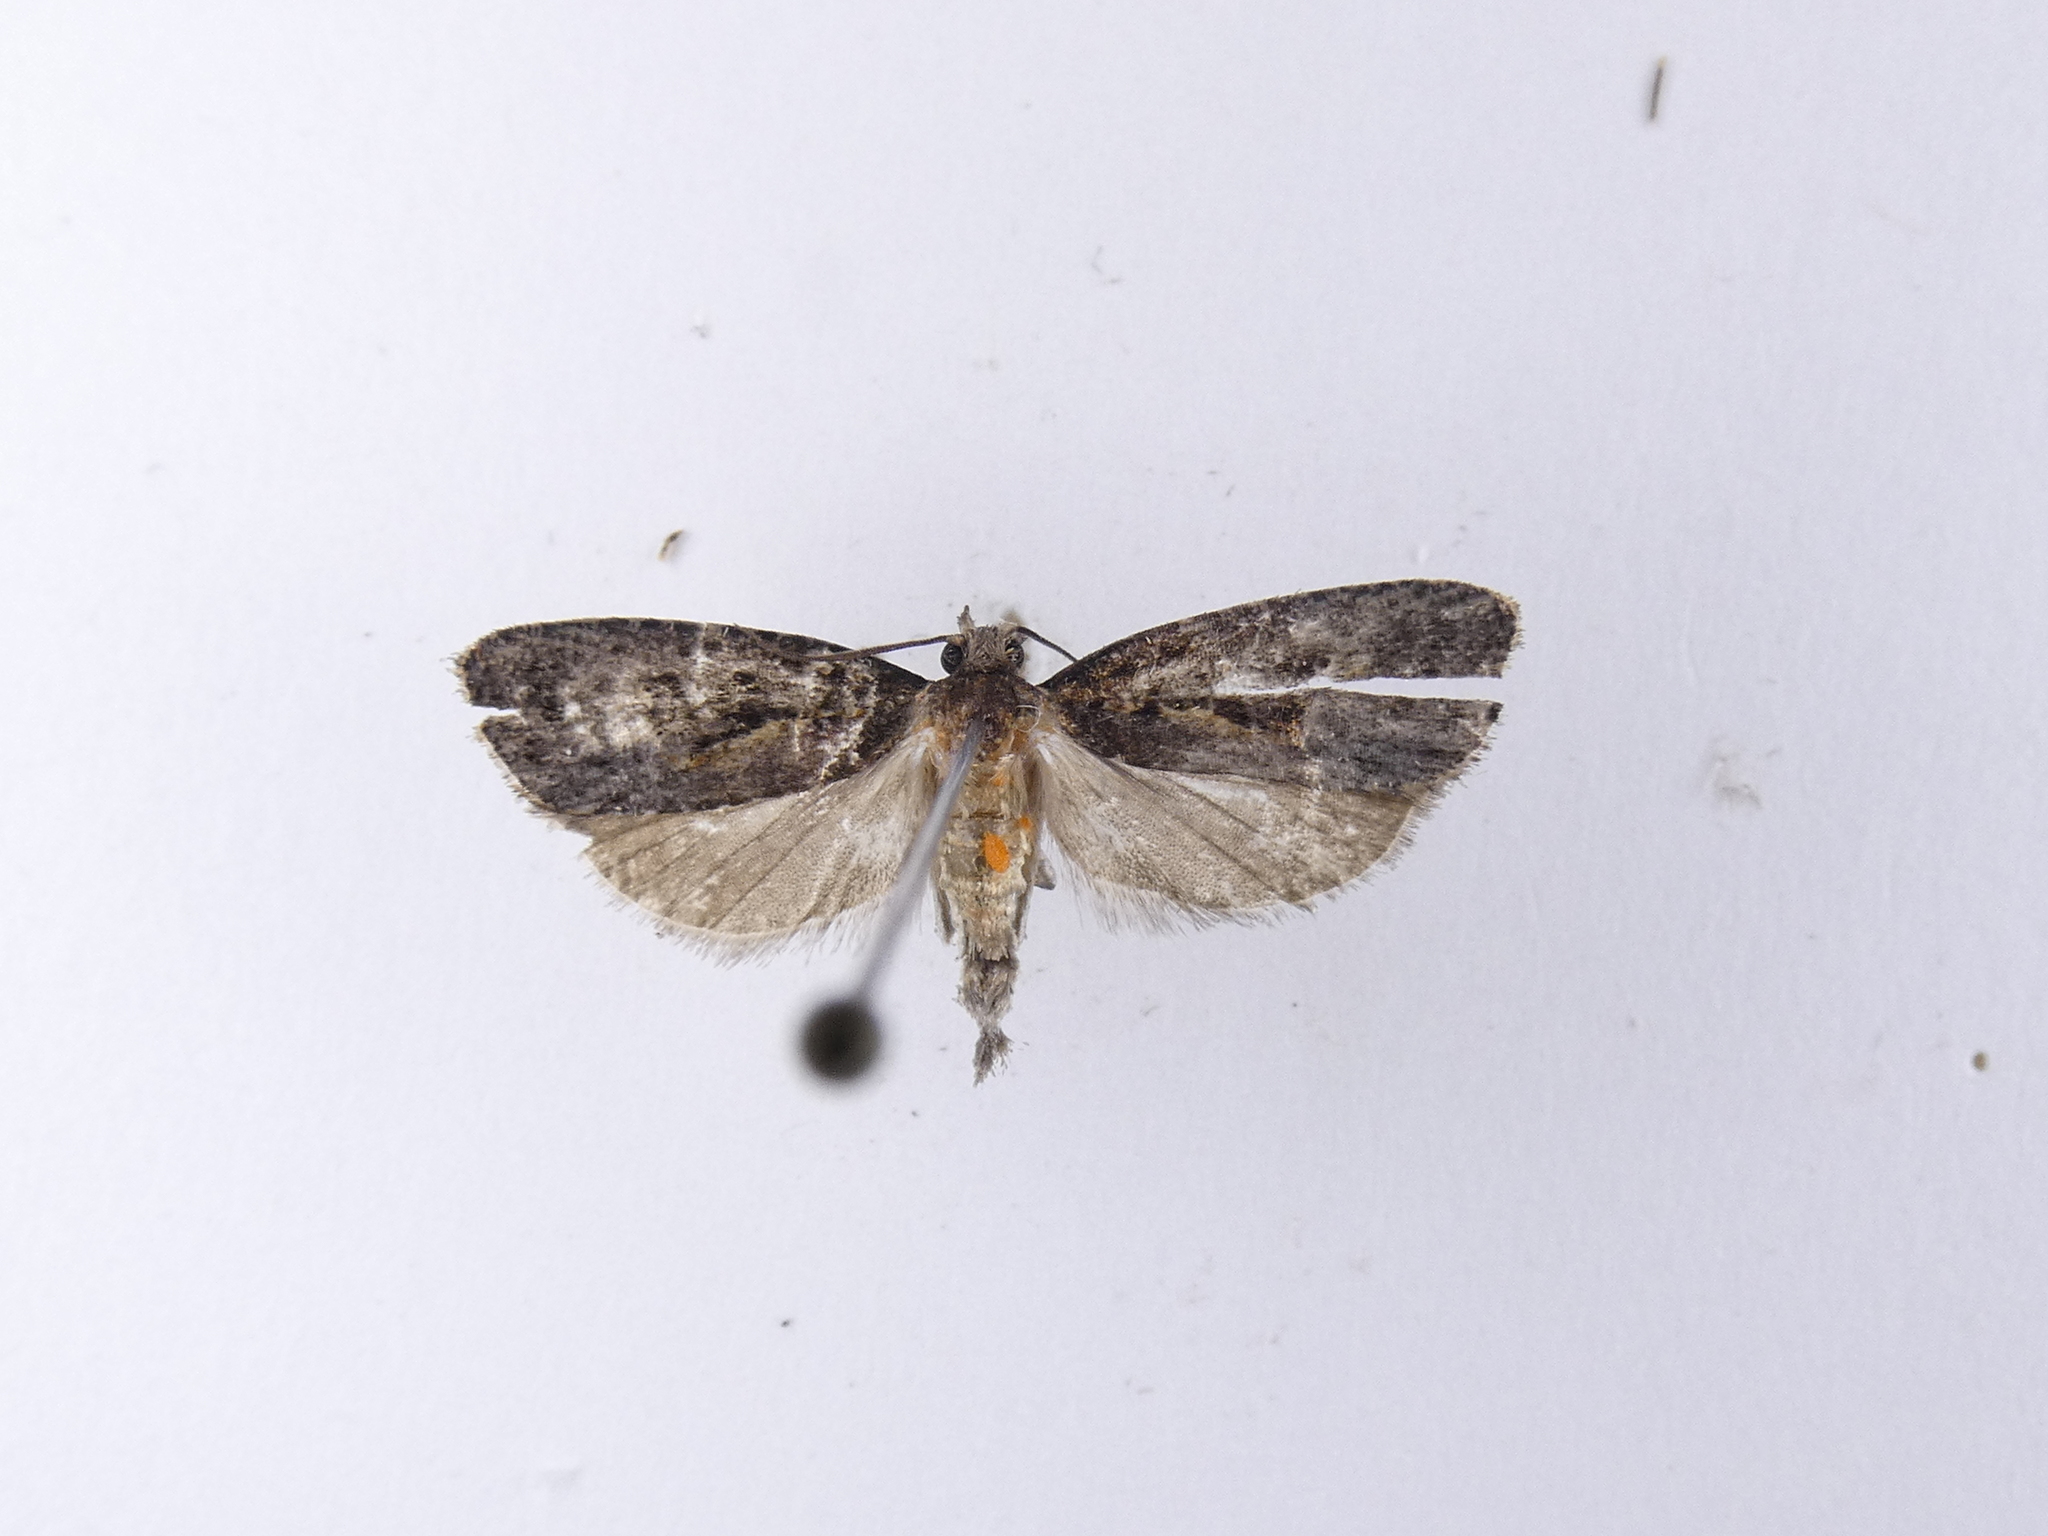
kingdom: Animalia
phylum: Arthropoda
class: Insecta
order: Lepidoptera
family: Tortricidae
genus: Cryptaspasma
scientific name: Cryptaspasma querula
